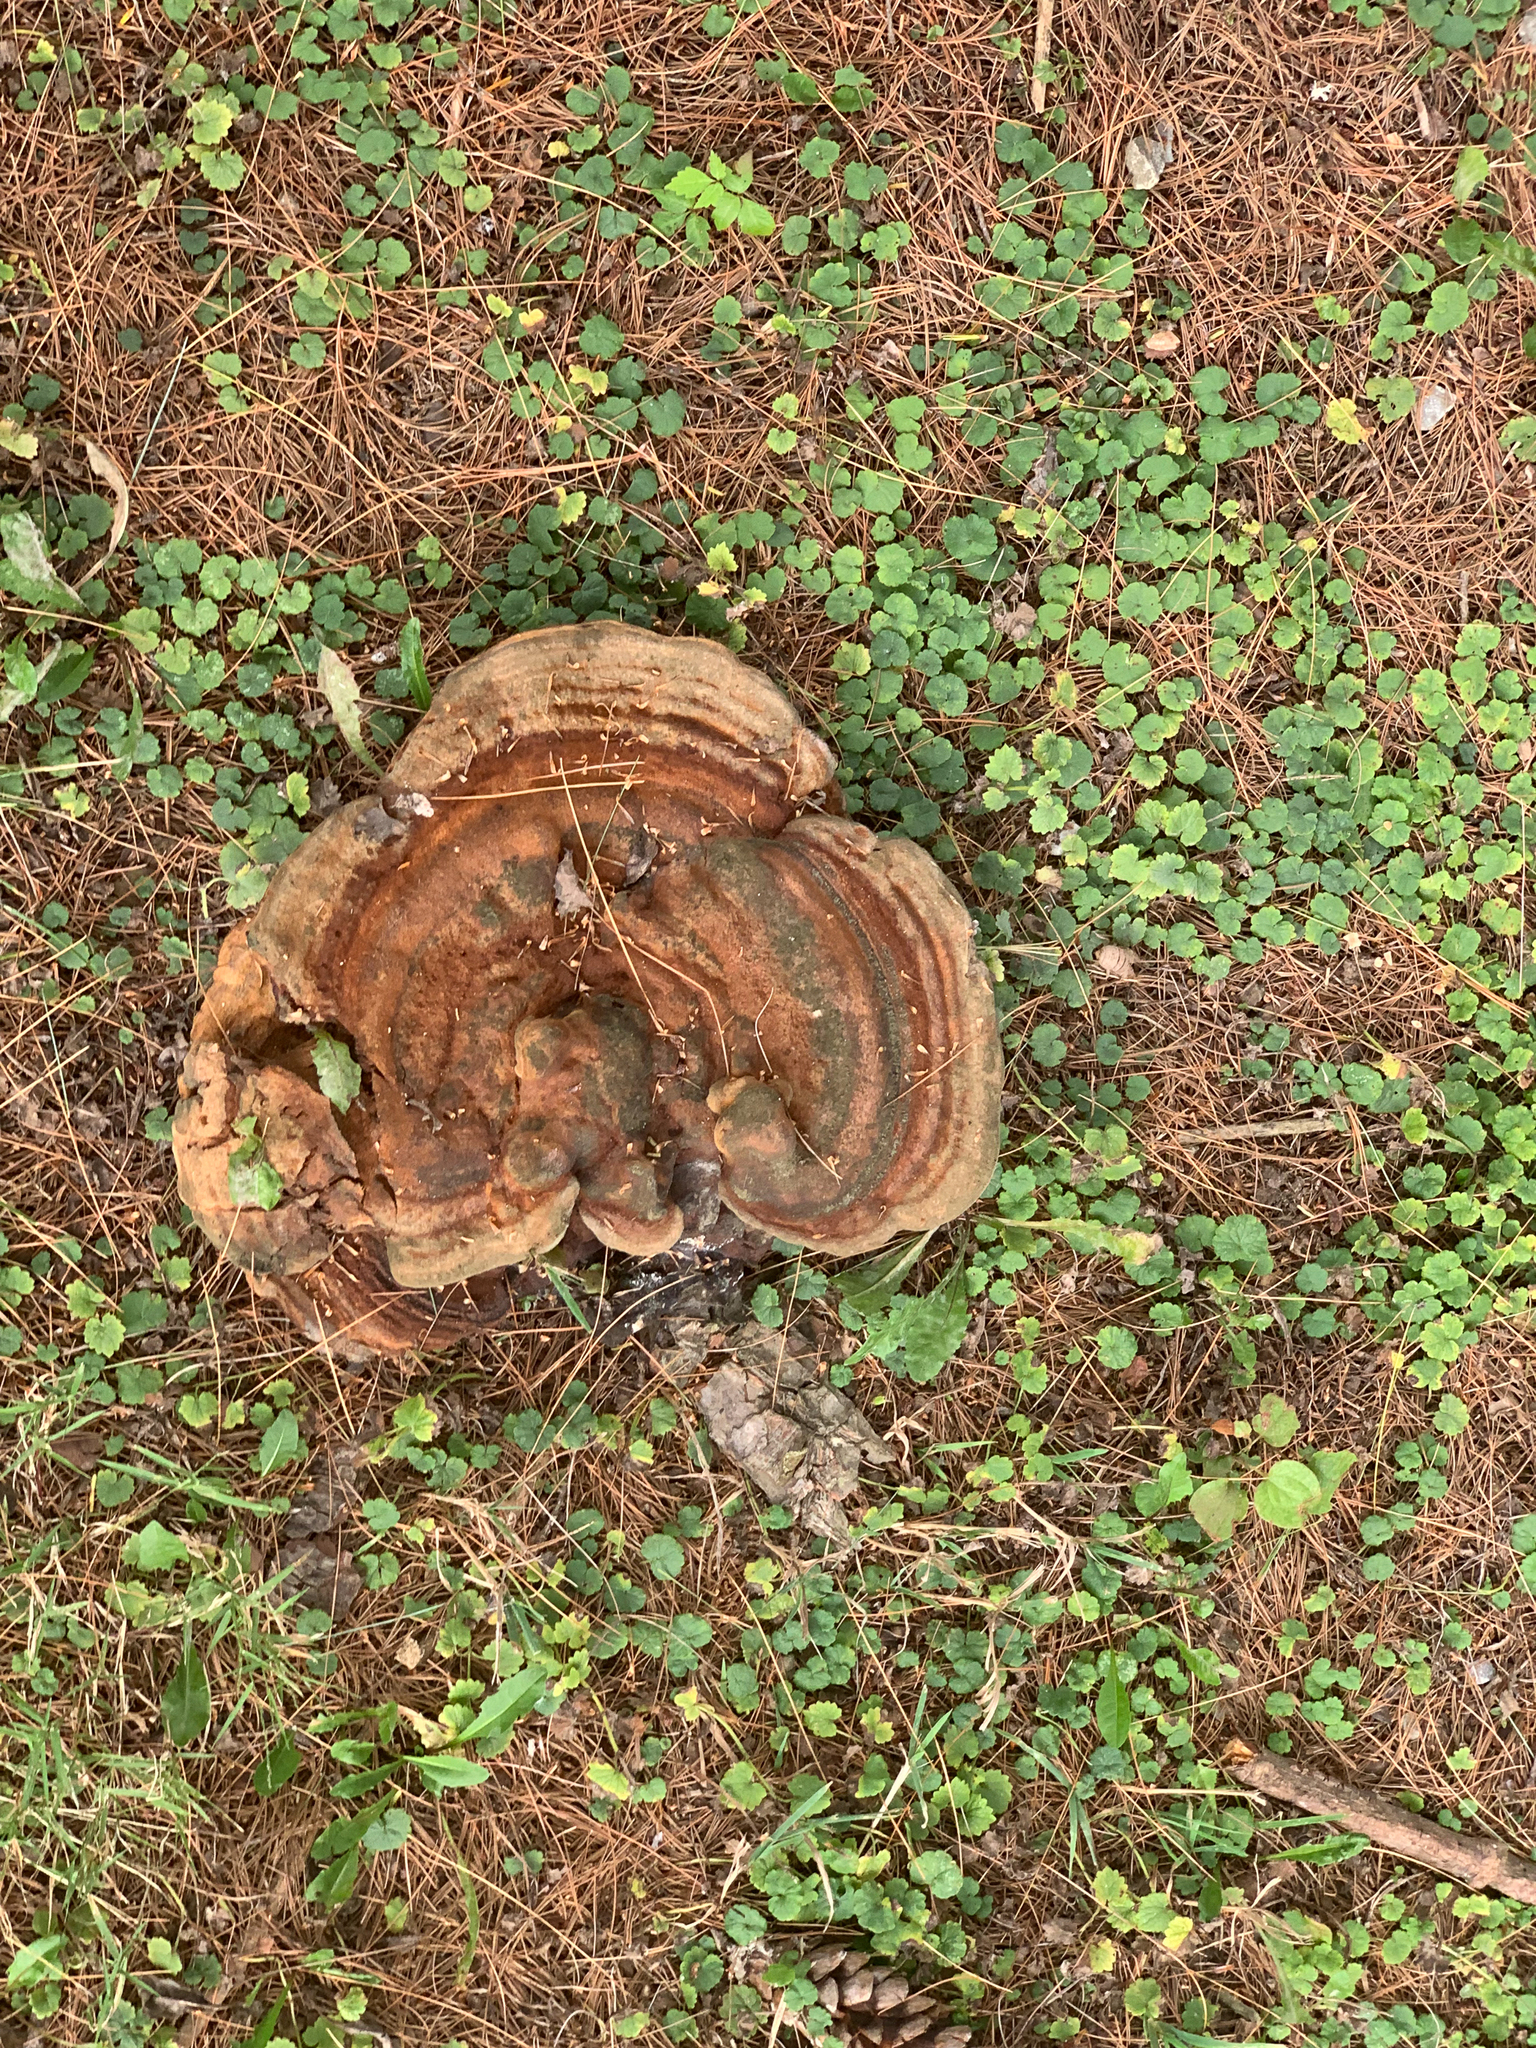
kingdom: Fungi
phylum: Basidiomycota
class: Agaricomycetes
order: Polyporales
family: Polyporaceae
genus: Ganoderma
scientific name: Ganoderma resinaceum
